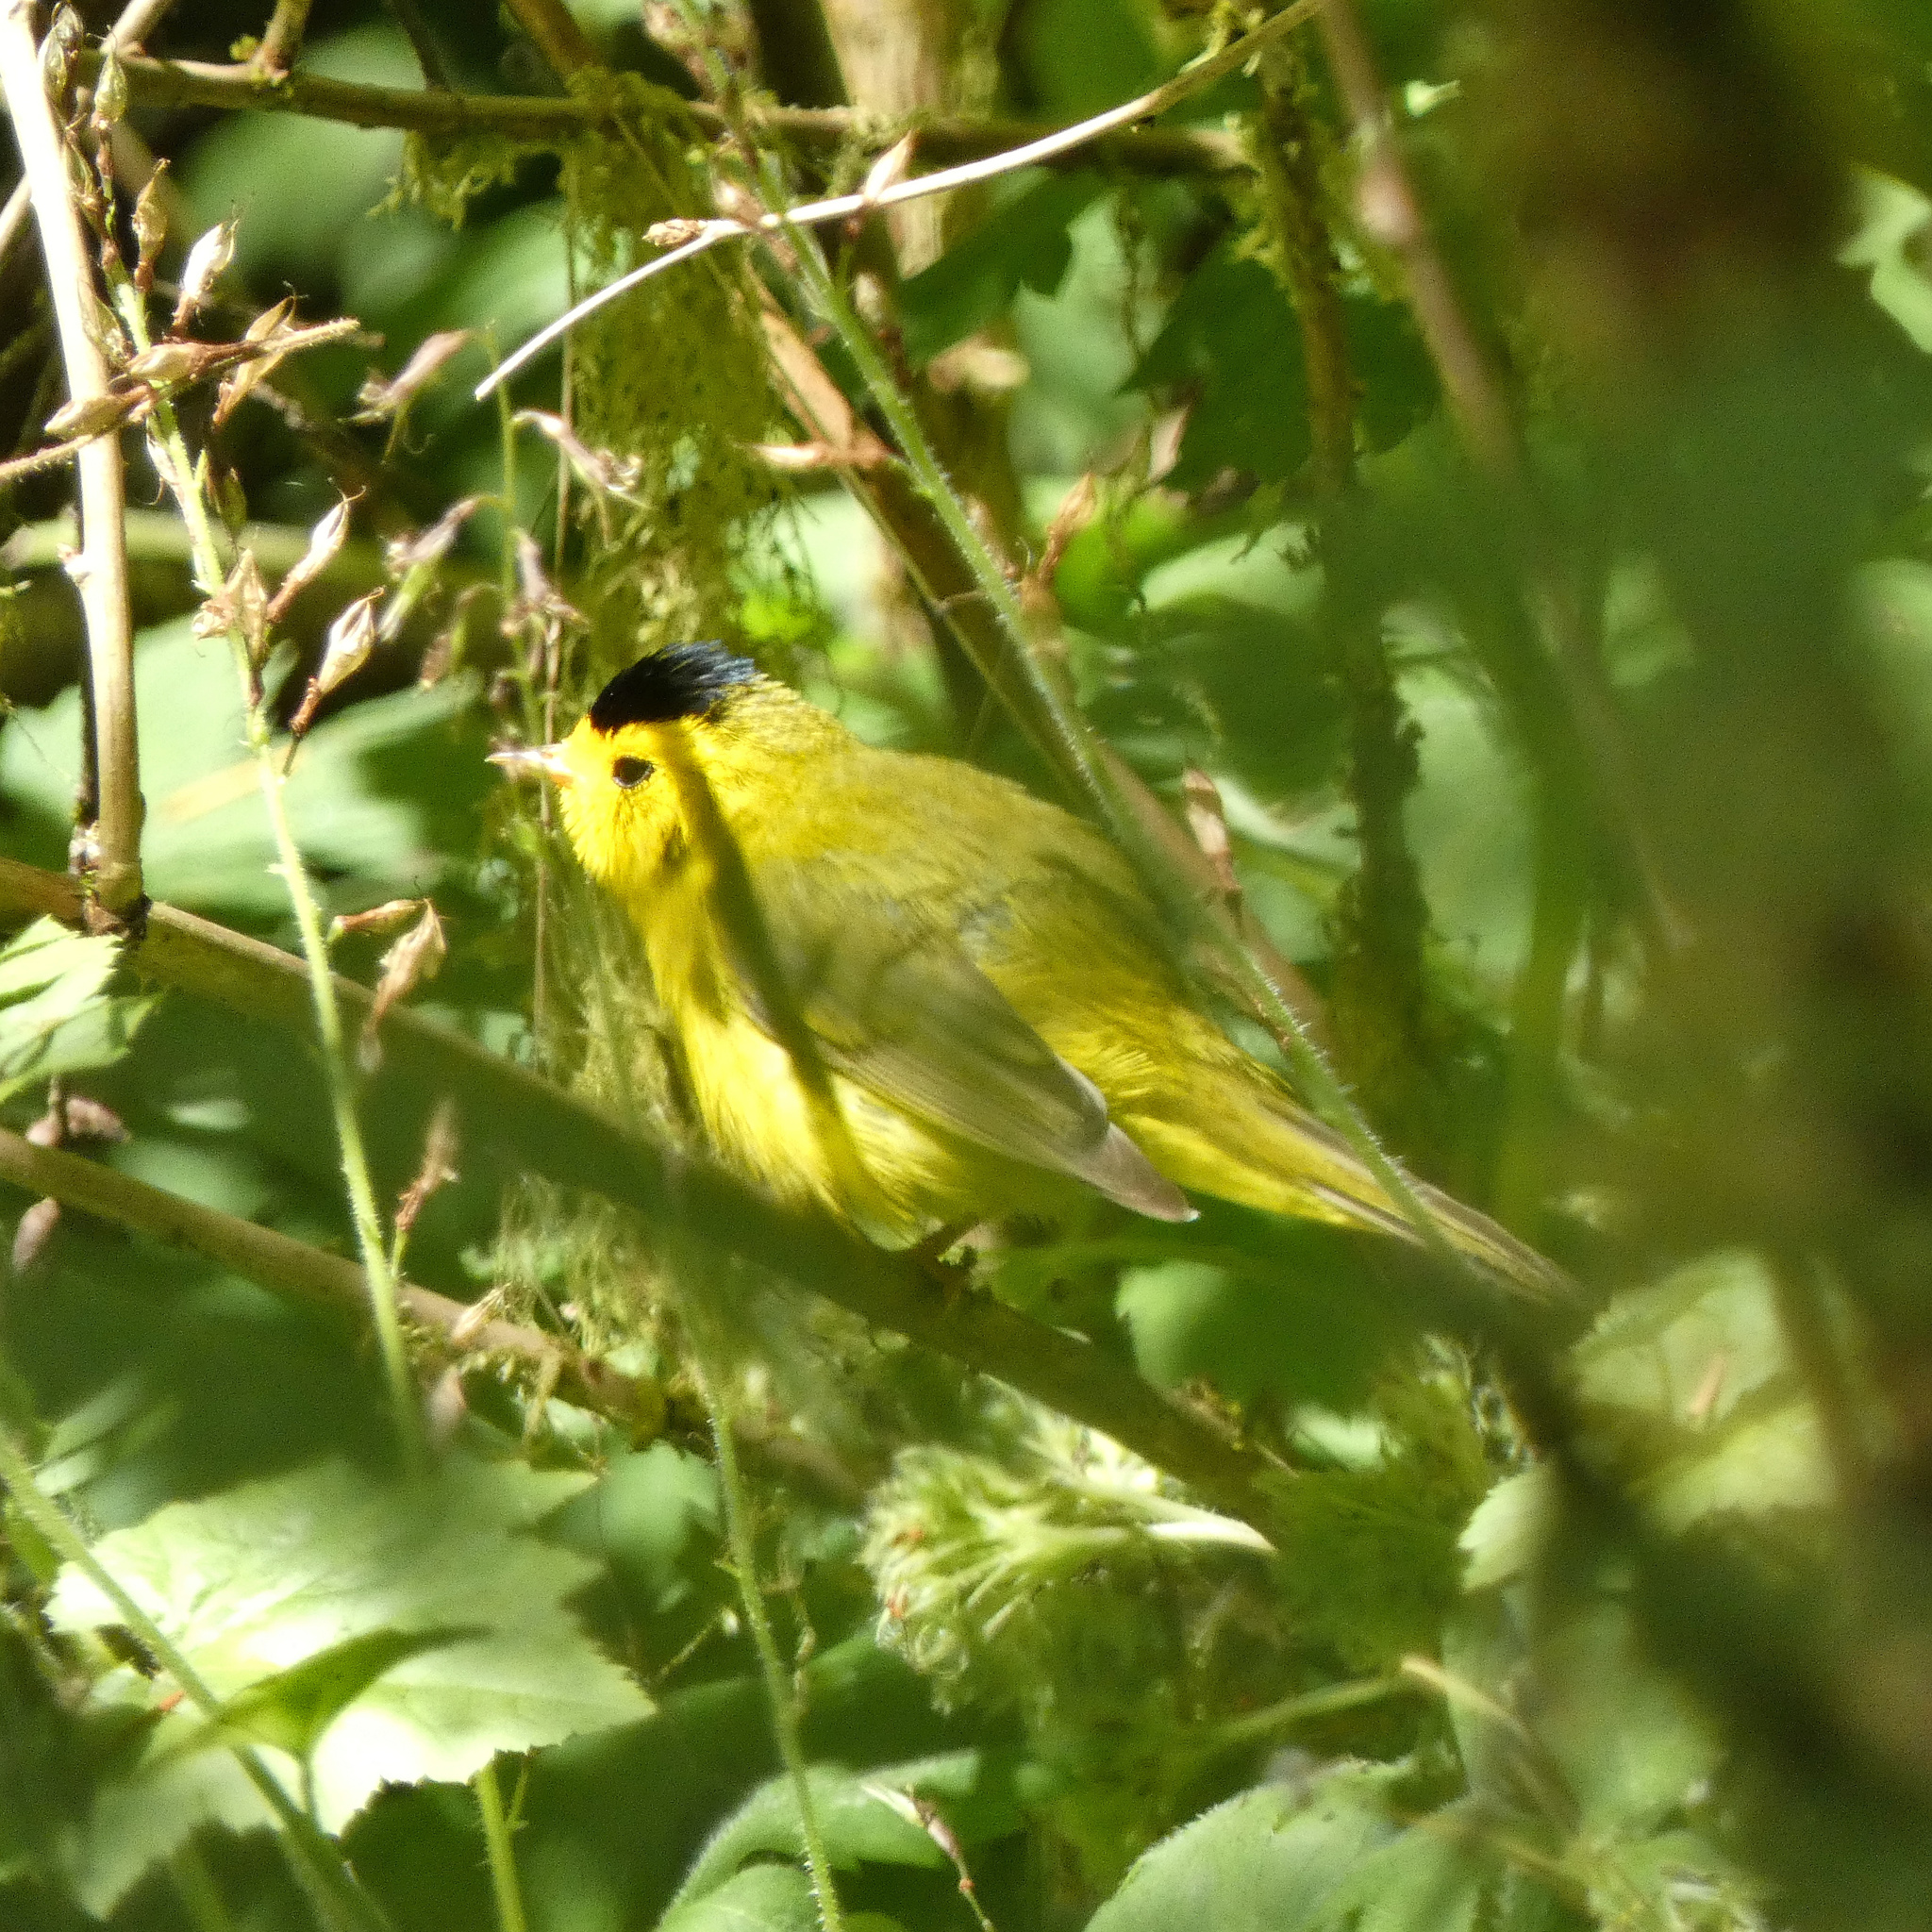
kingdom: Animalia
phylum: Chordata
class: Aves
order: Passeriformes
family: Parulidae
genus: Cardellina
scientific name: Cardellina pusilla
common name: Wilson's warbler
